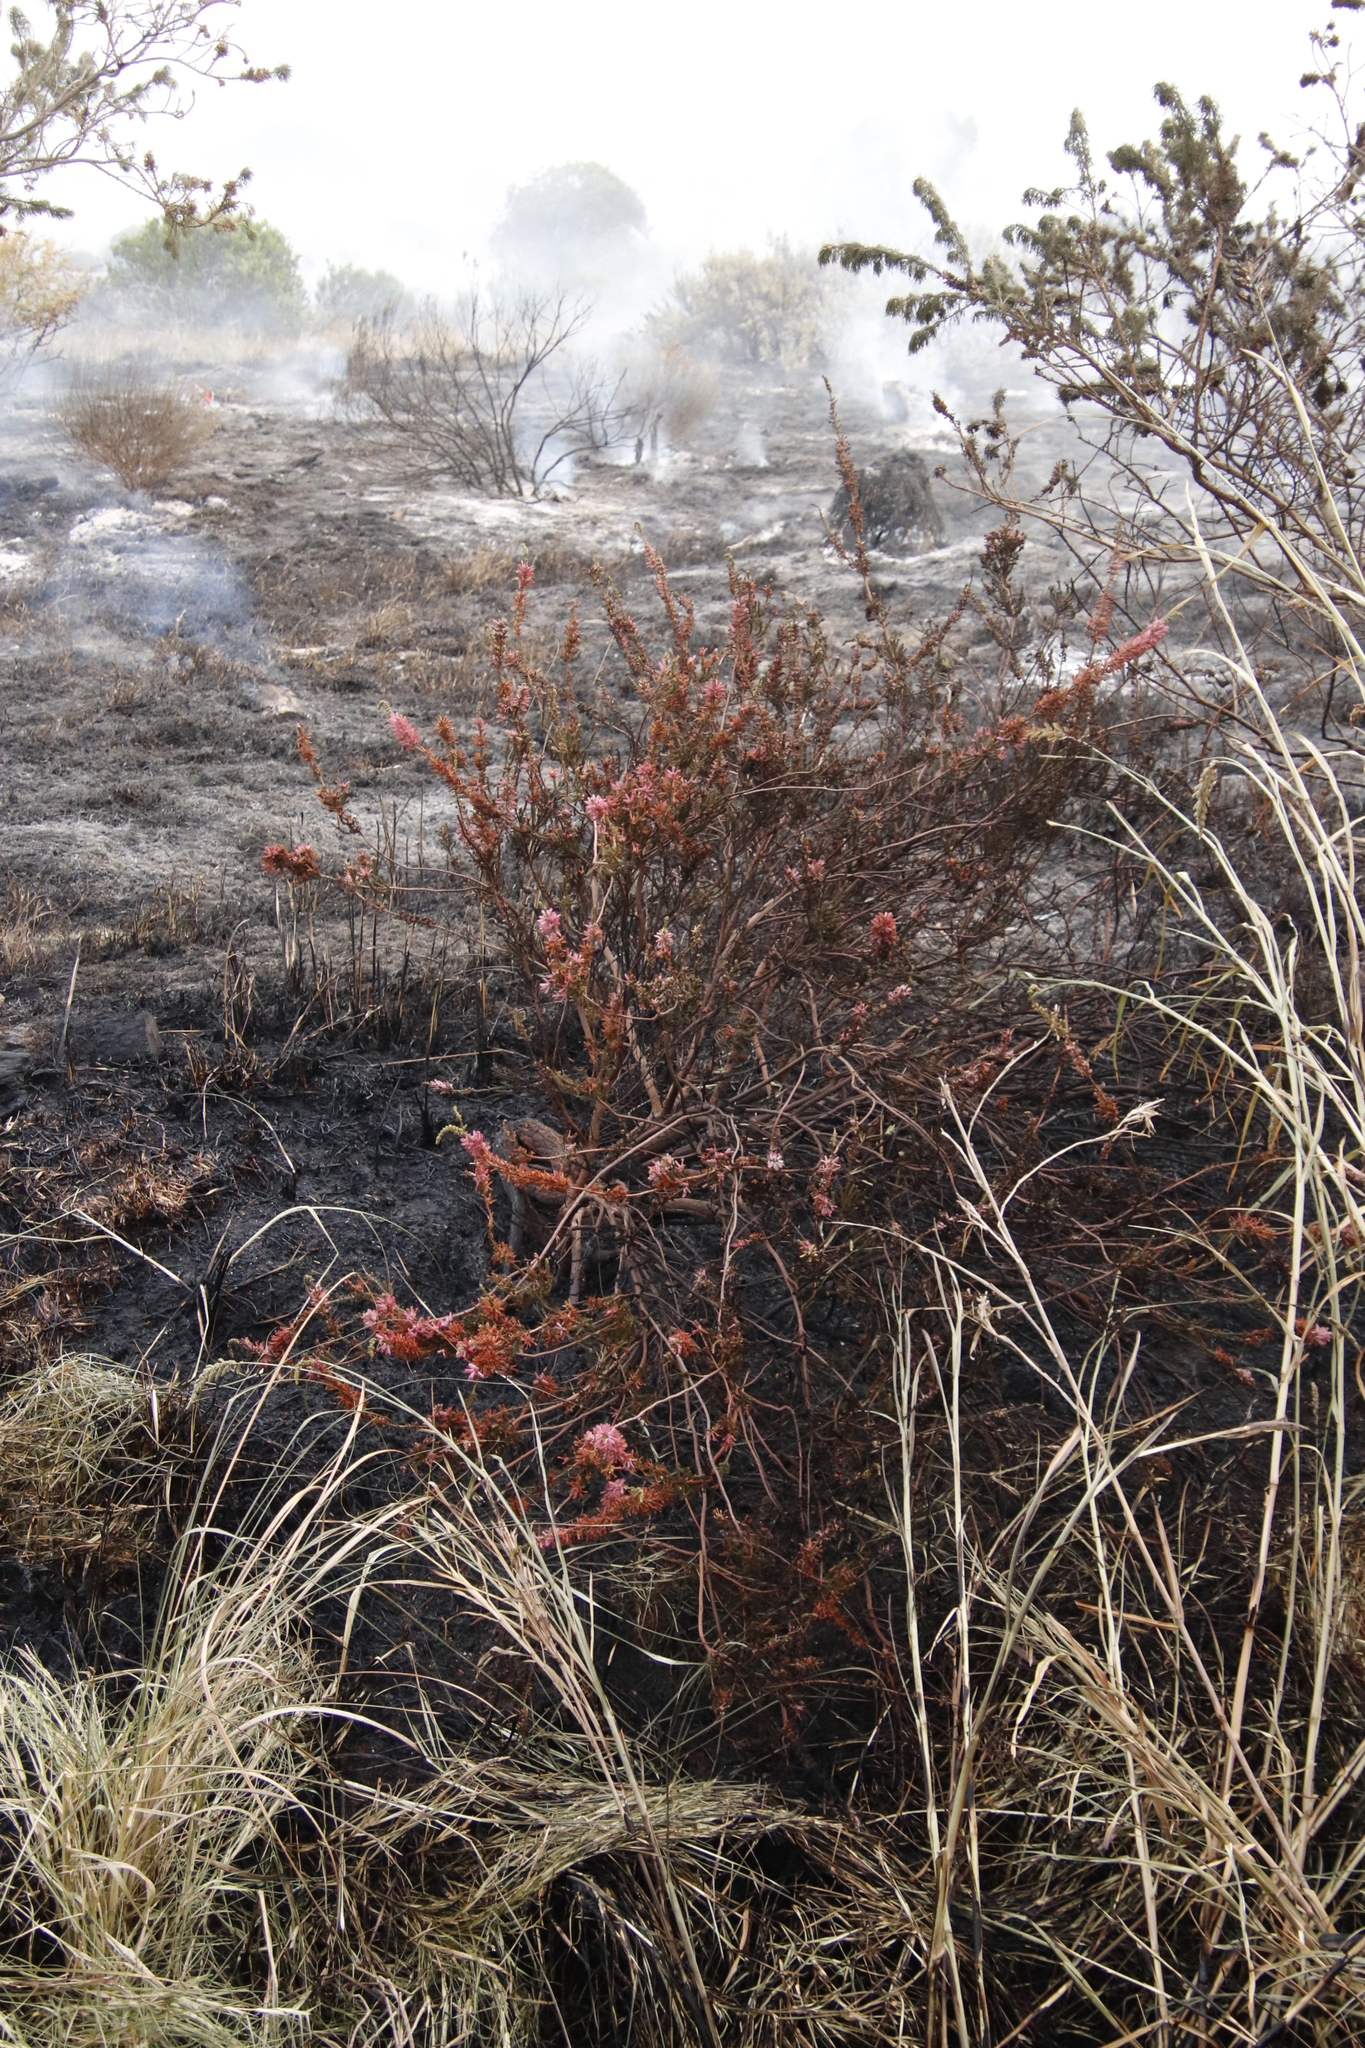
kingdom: Plantae
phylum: Tracheophyta
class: Magnoliopsida
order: Ericales
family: Ericaceae
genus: Erica
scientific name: Erica verticillata
